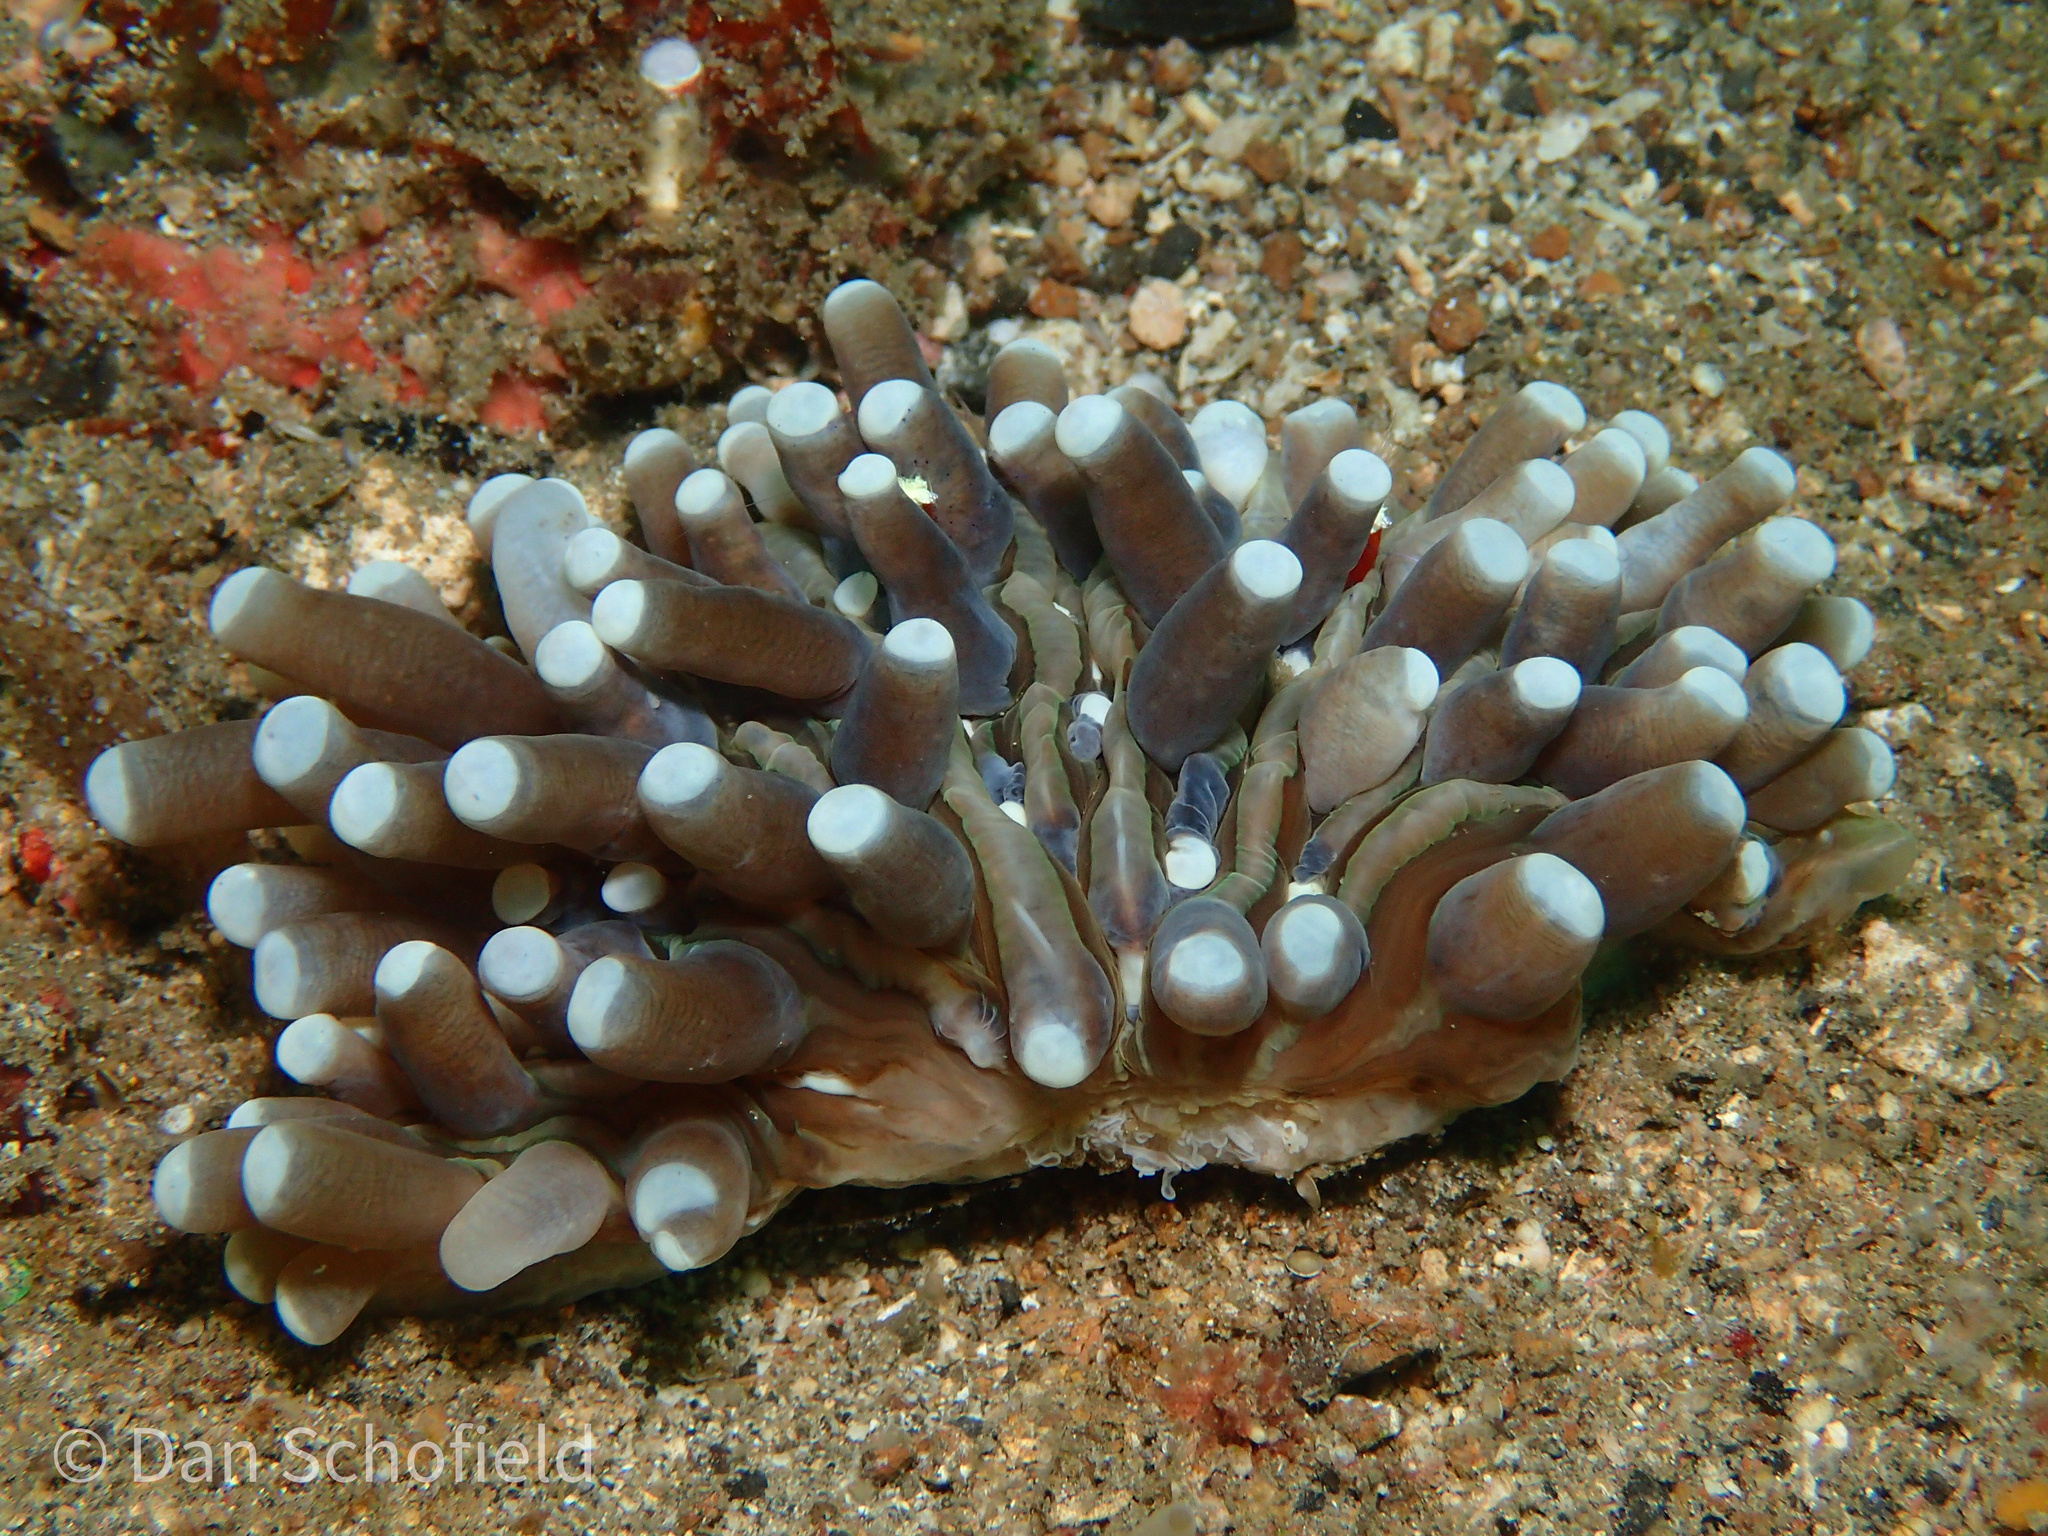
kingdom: Animalia
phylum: Cnidaria
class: Anthozoa
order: Scleractinia
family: Fungiidae
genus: Heliofungia
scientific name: Heliofungia actiniformis
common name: Plate coral
